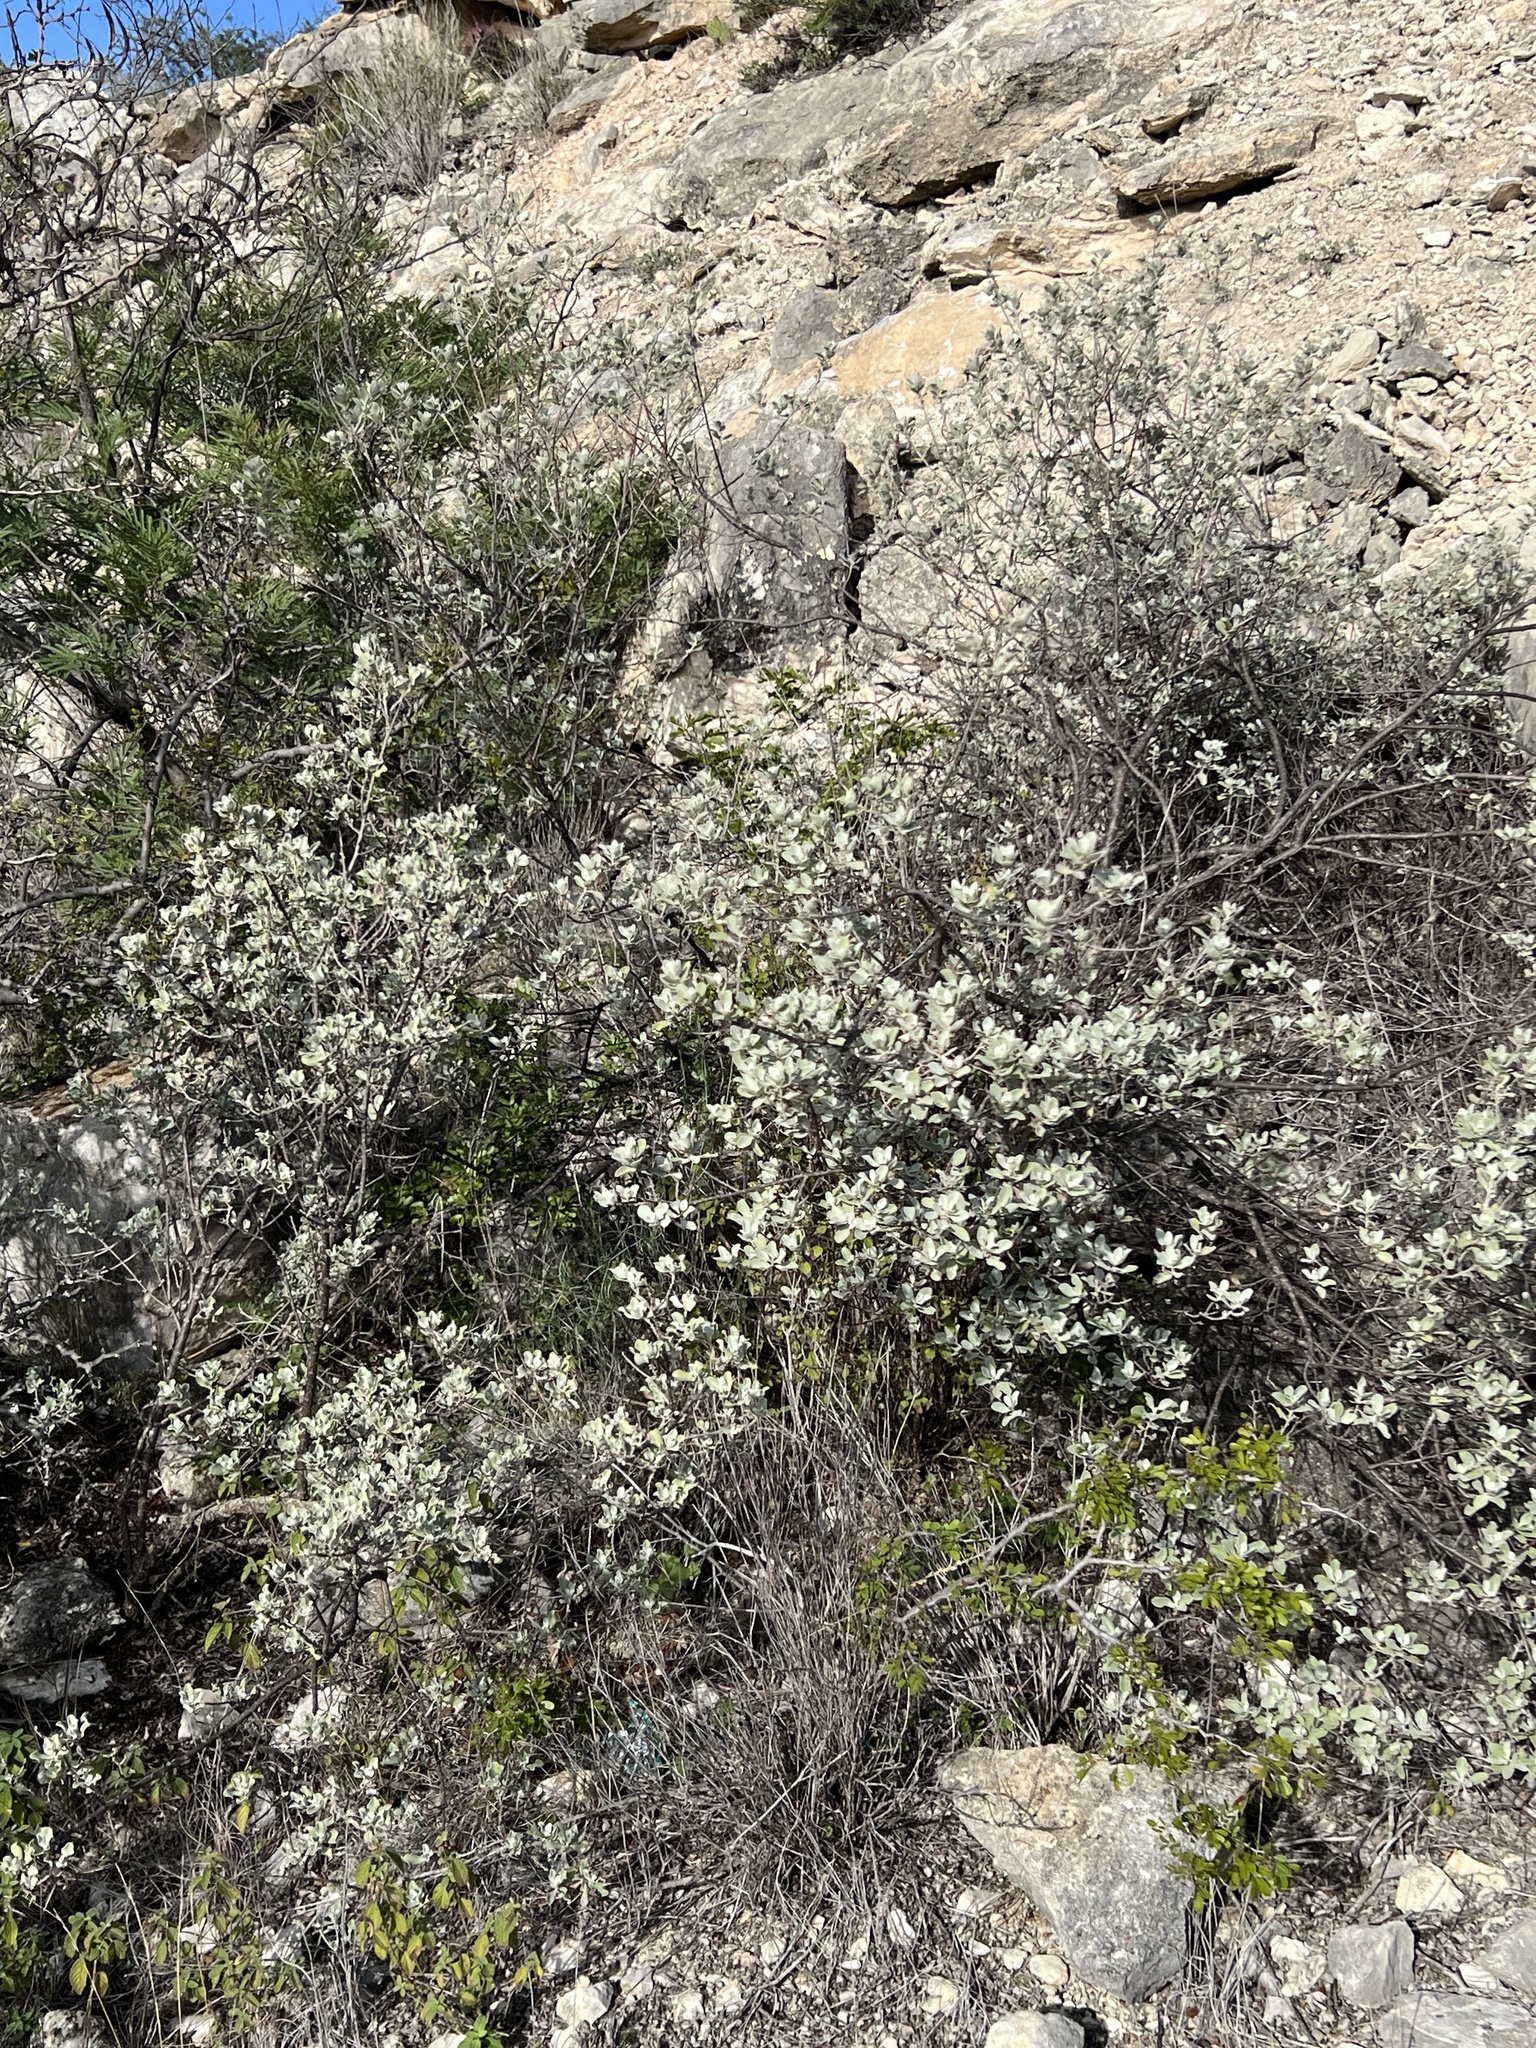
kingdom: Plantae
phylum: Tracheophyta
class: Magnoliopsida
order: Lamiales
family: Scrophulariaceae
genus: Leucophyllum
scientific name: Leucophyllum frutescens
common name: Texas silverleaf
